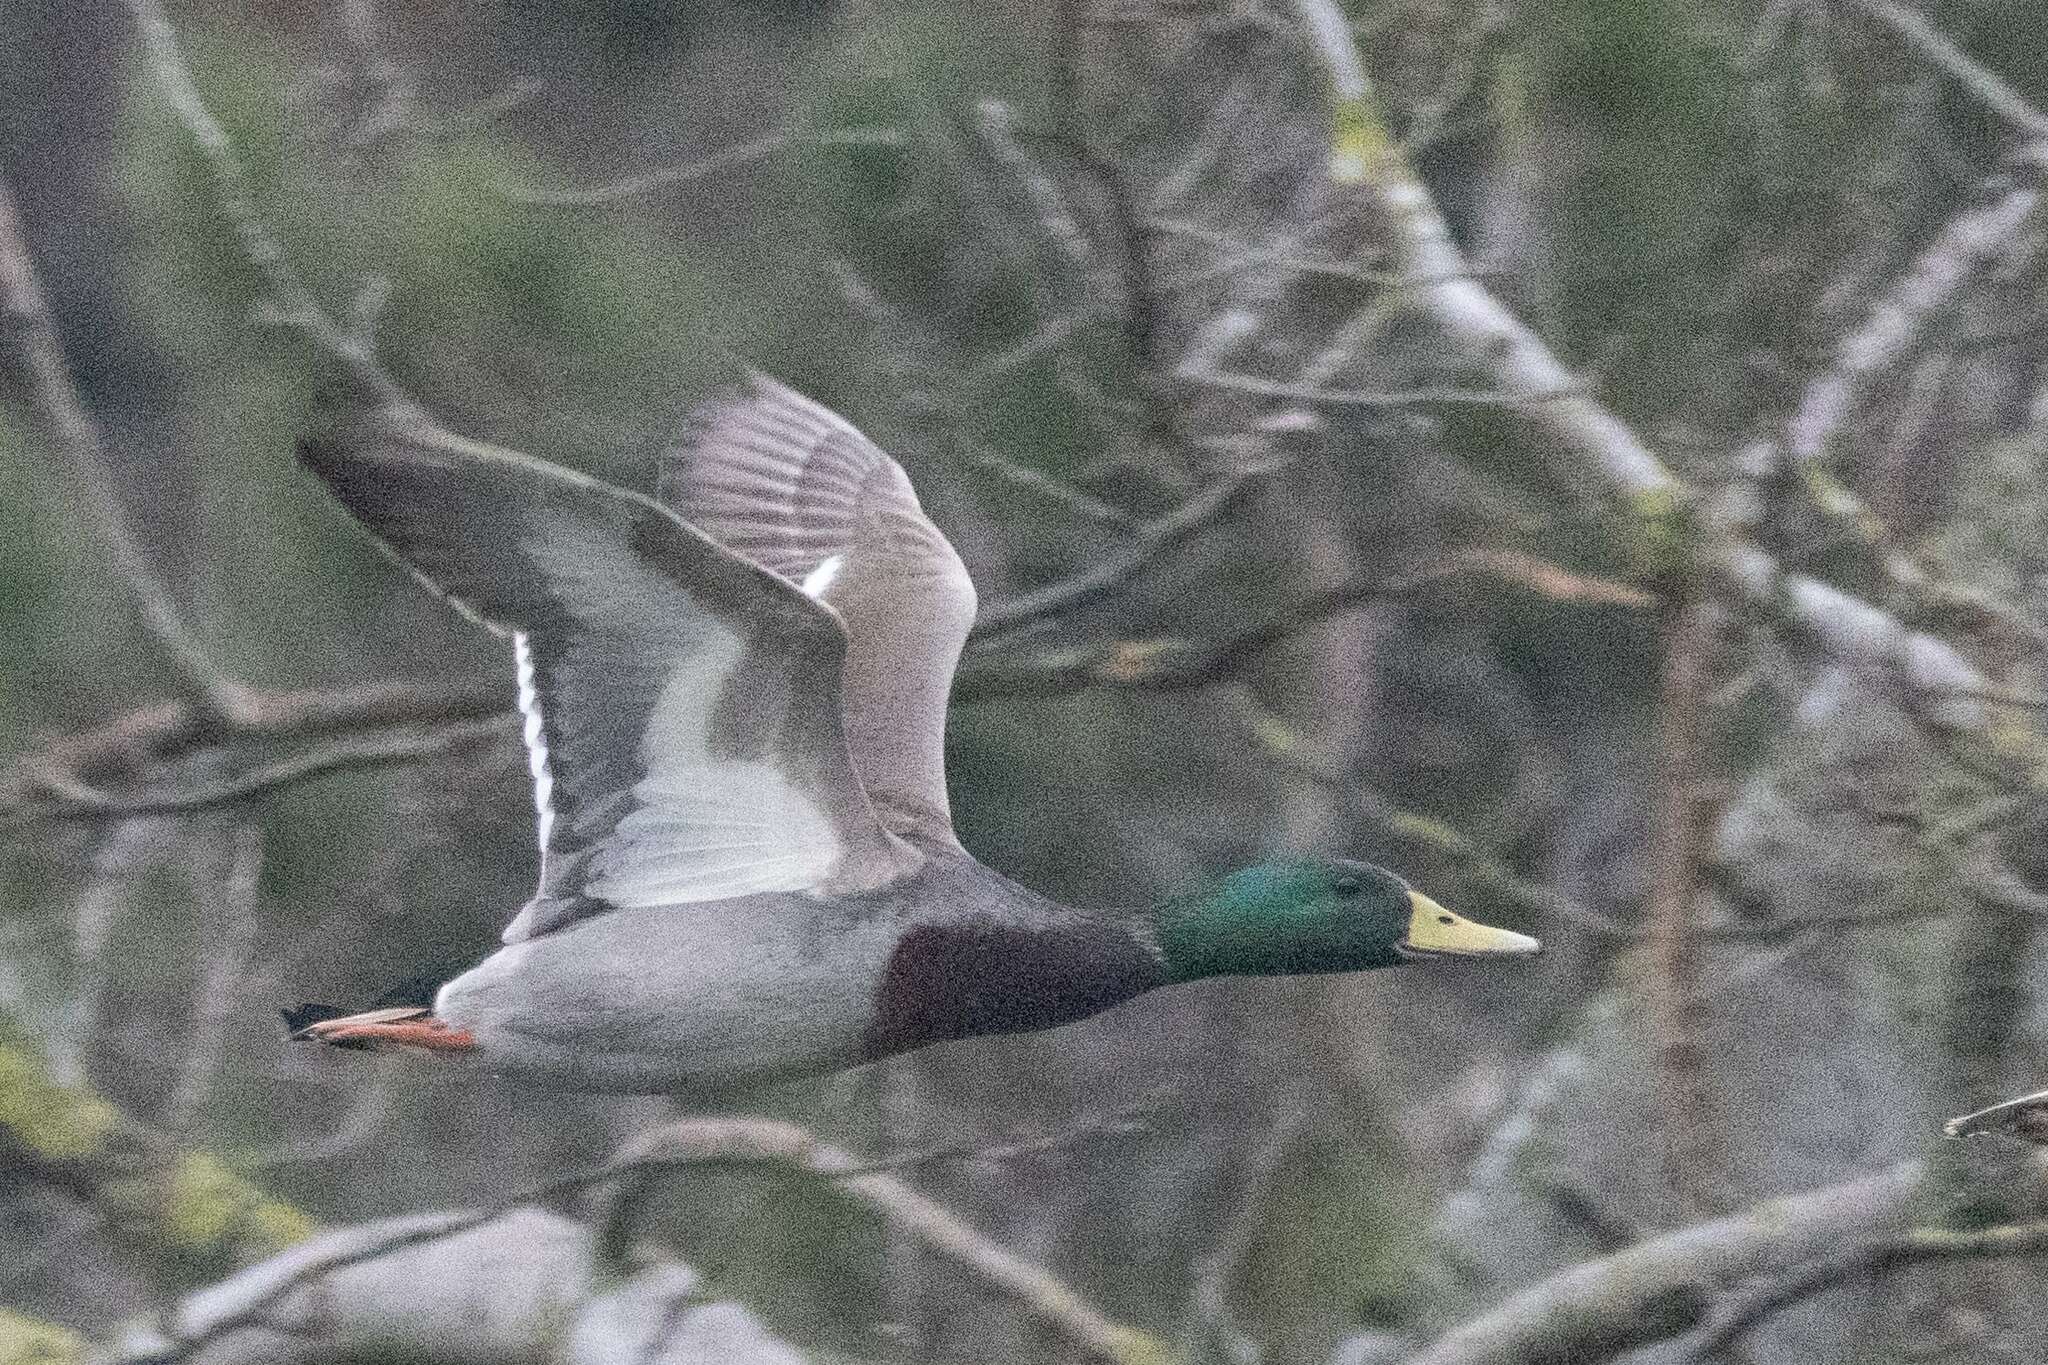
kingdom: Animalia
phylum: Chordata
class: Aves
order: Anseriformes
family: Anatidae
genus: Anas
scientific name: Anas platyrhynchos
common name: Mallard
